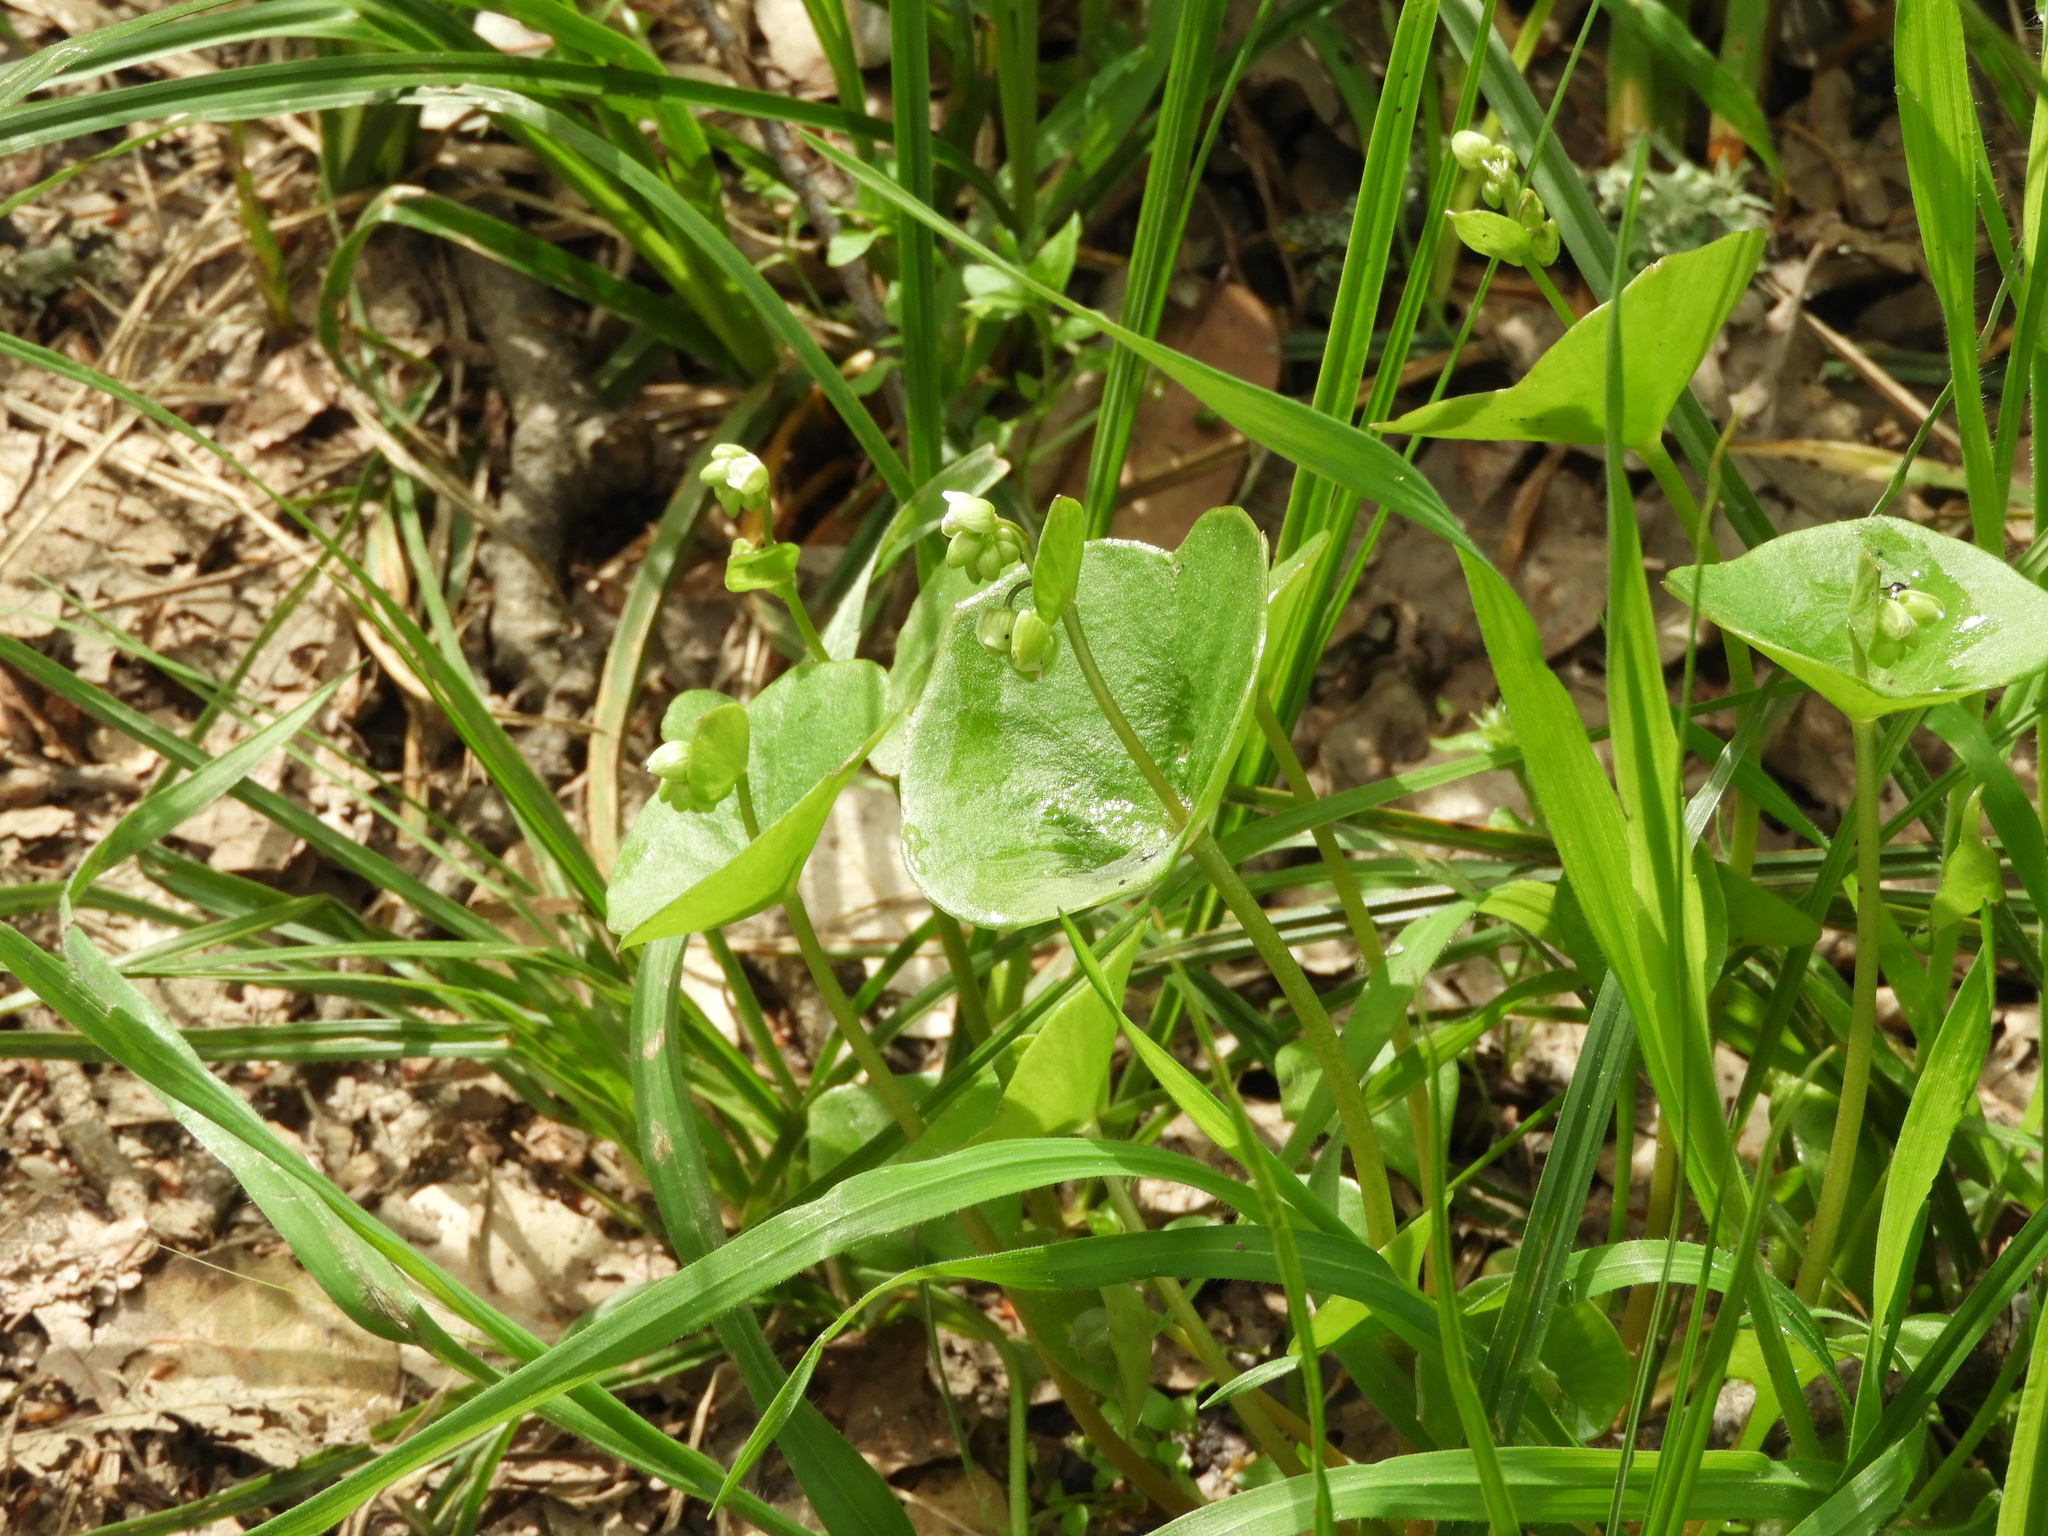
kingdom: Plantae
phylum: Tracheophyta
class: Magnoliopsida
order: Caryophyllales
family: Montiaceae
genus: Claytonia
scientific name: Claytonia perfoliata
